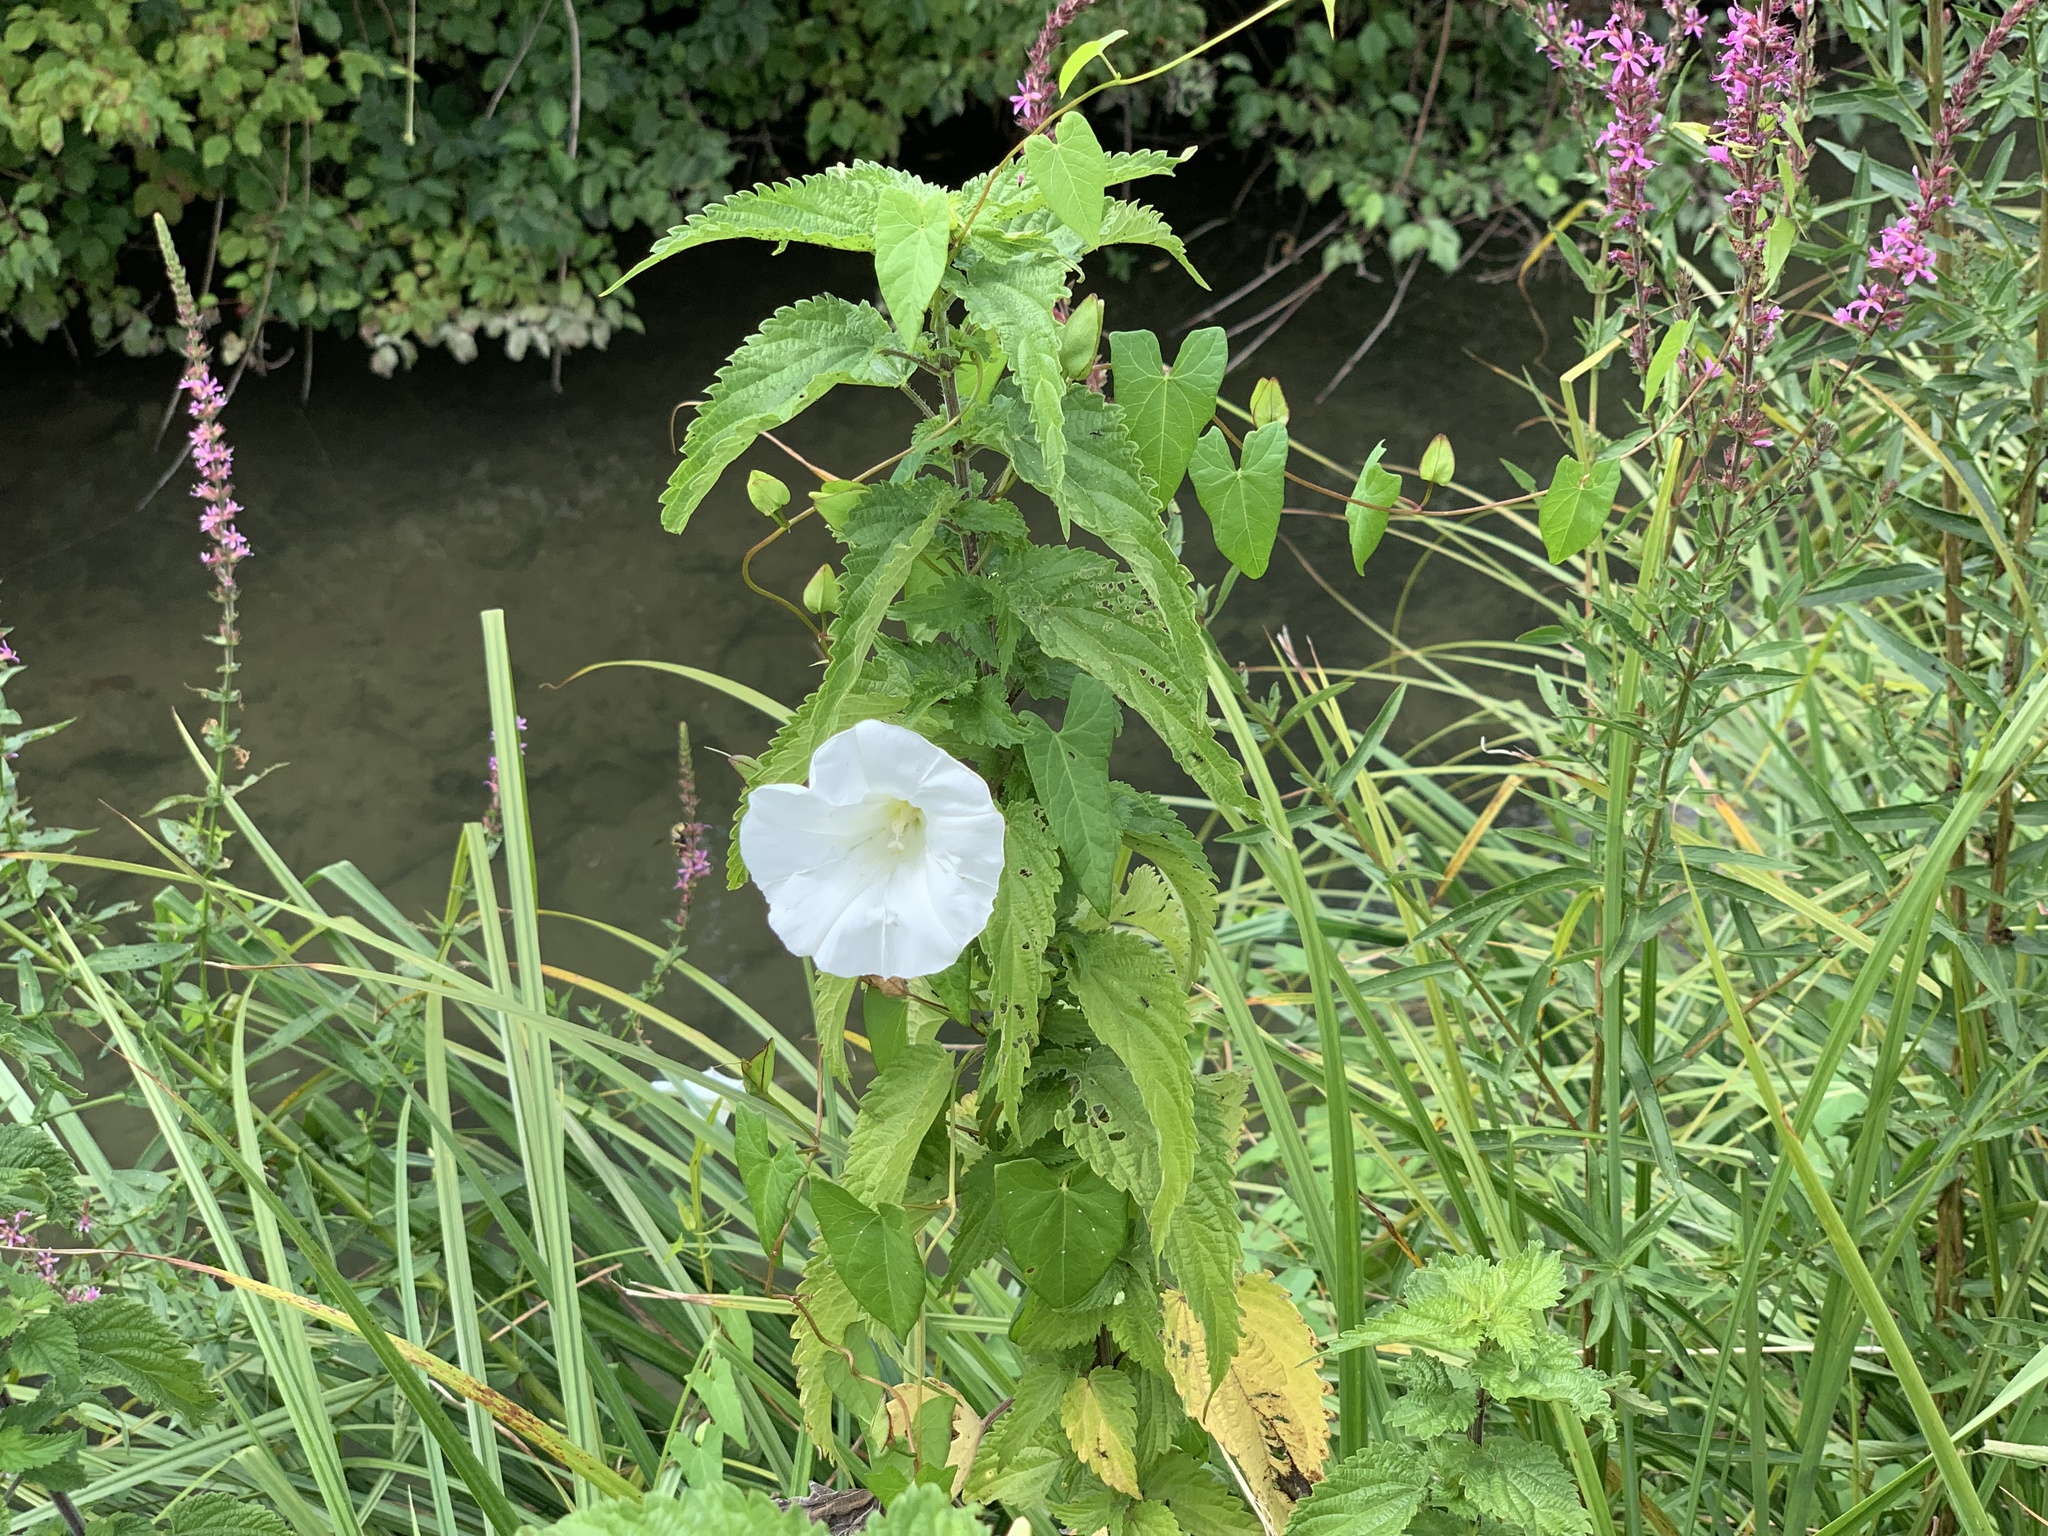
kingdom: Plantae
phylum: Tracheophyta
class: Magnoliopsida
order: Solanales
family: Convolvulaceae
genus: Calystegia
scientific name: Calystegia sepium
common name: Hedge bindweed
